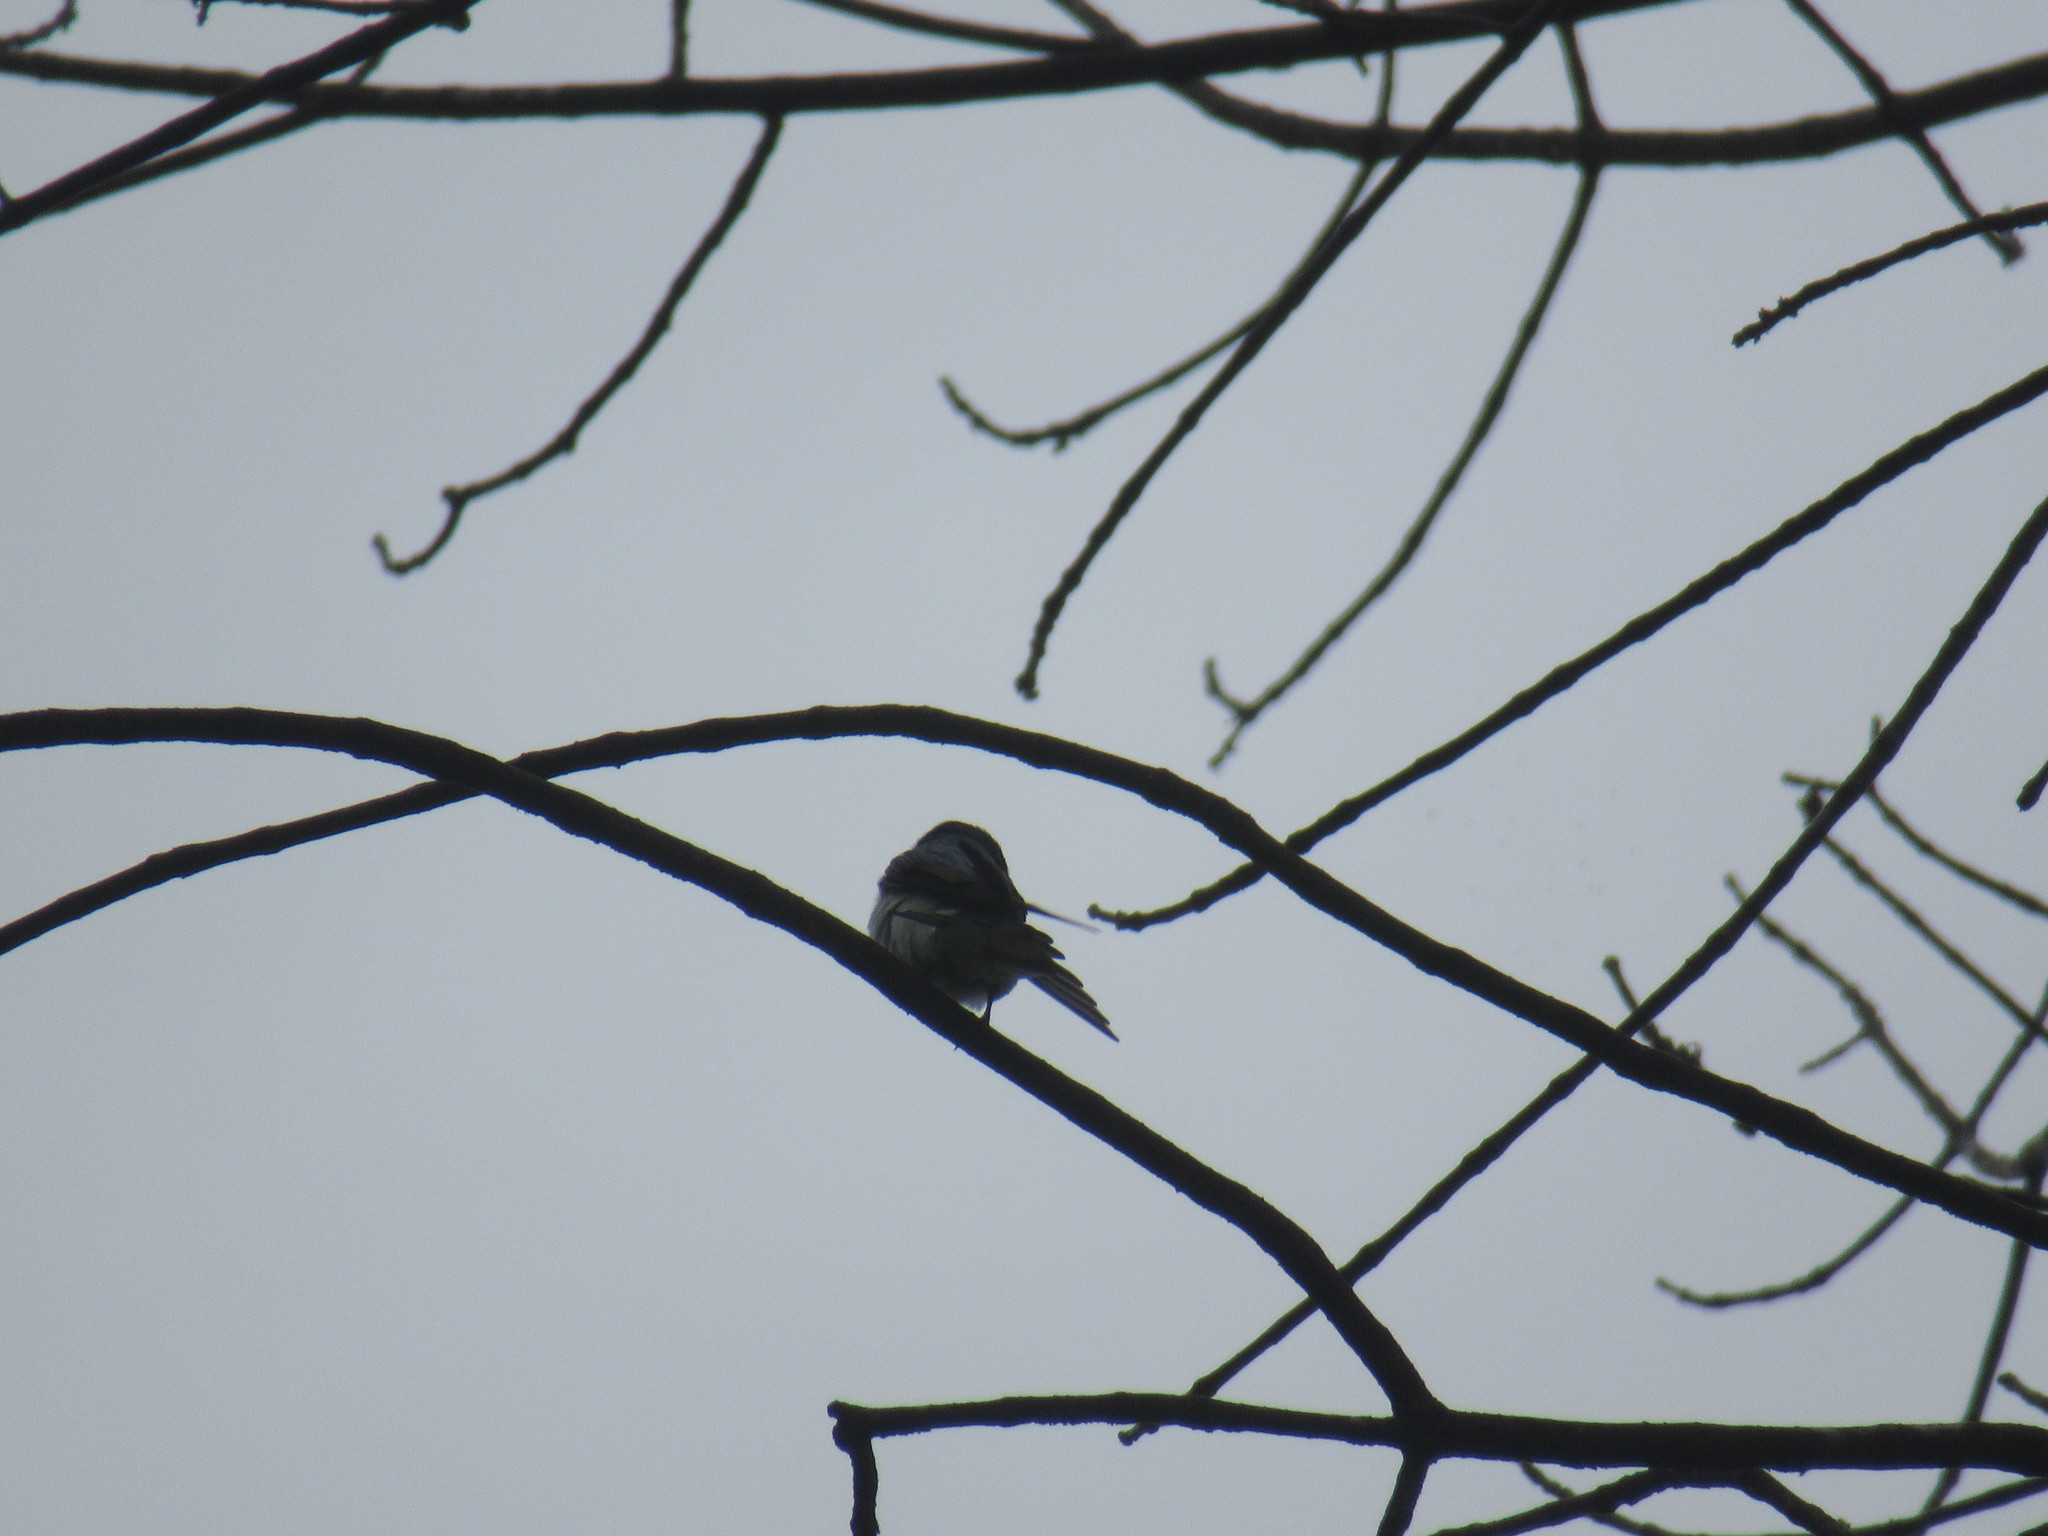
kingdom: Animalia
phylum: Chordata
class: Aves
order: Passeriformes
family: Hirundinidae
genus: Tachycineta
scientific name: Tachycineta bicolor
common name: Tree swallow
